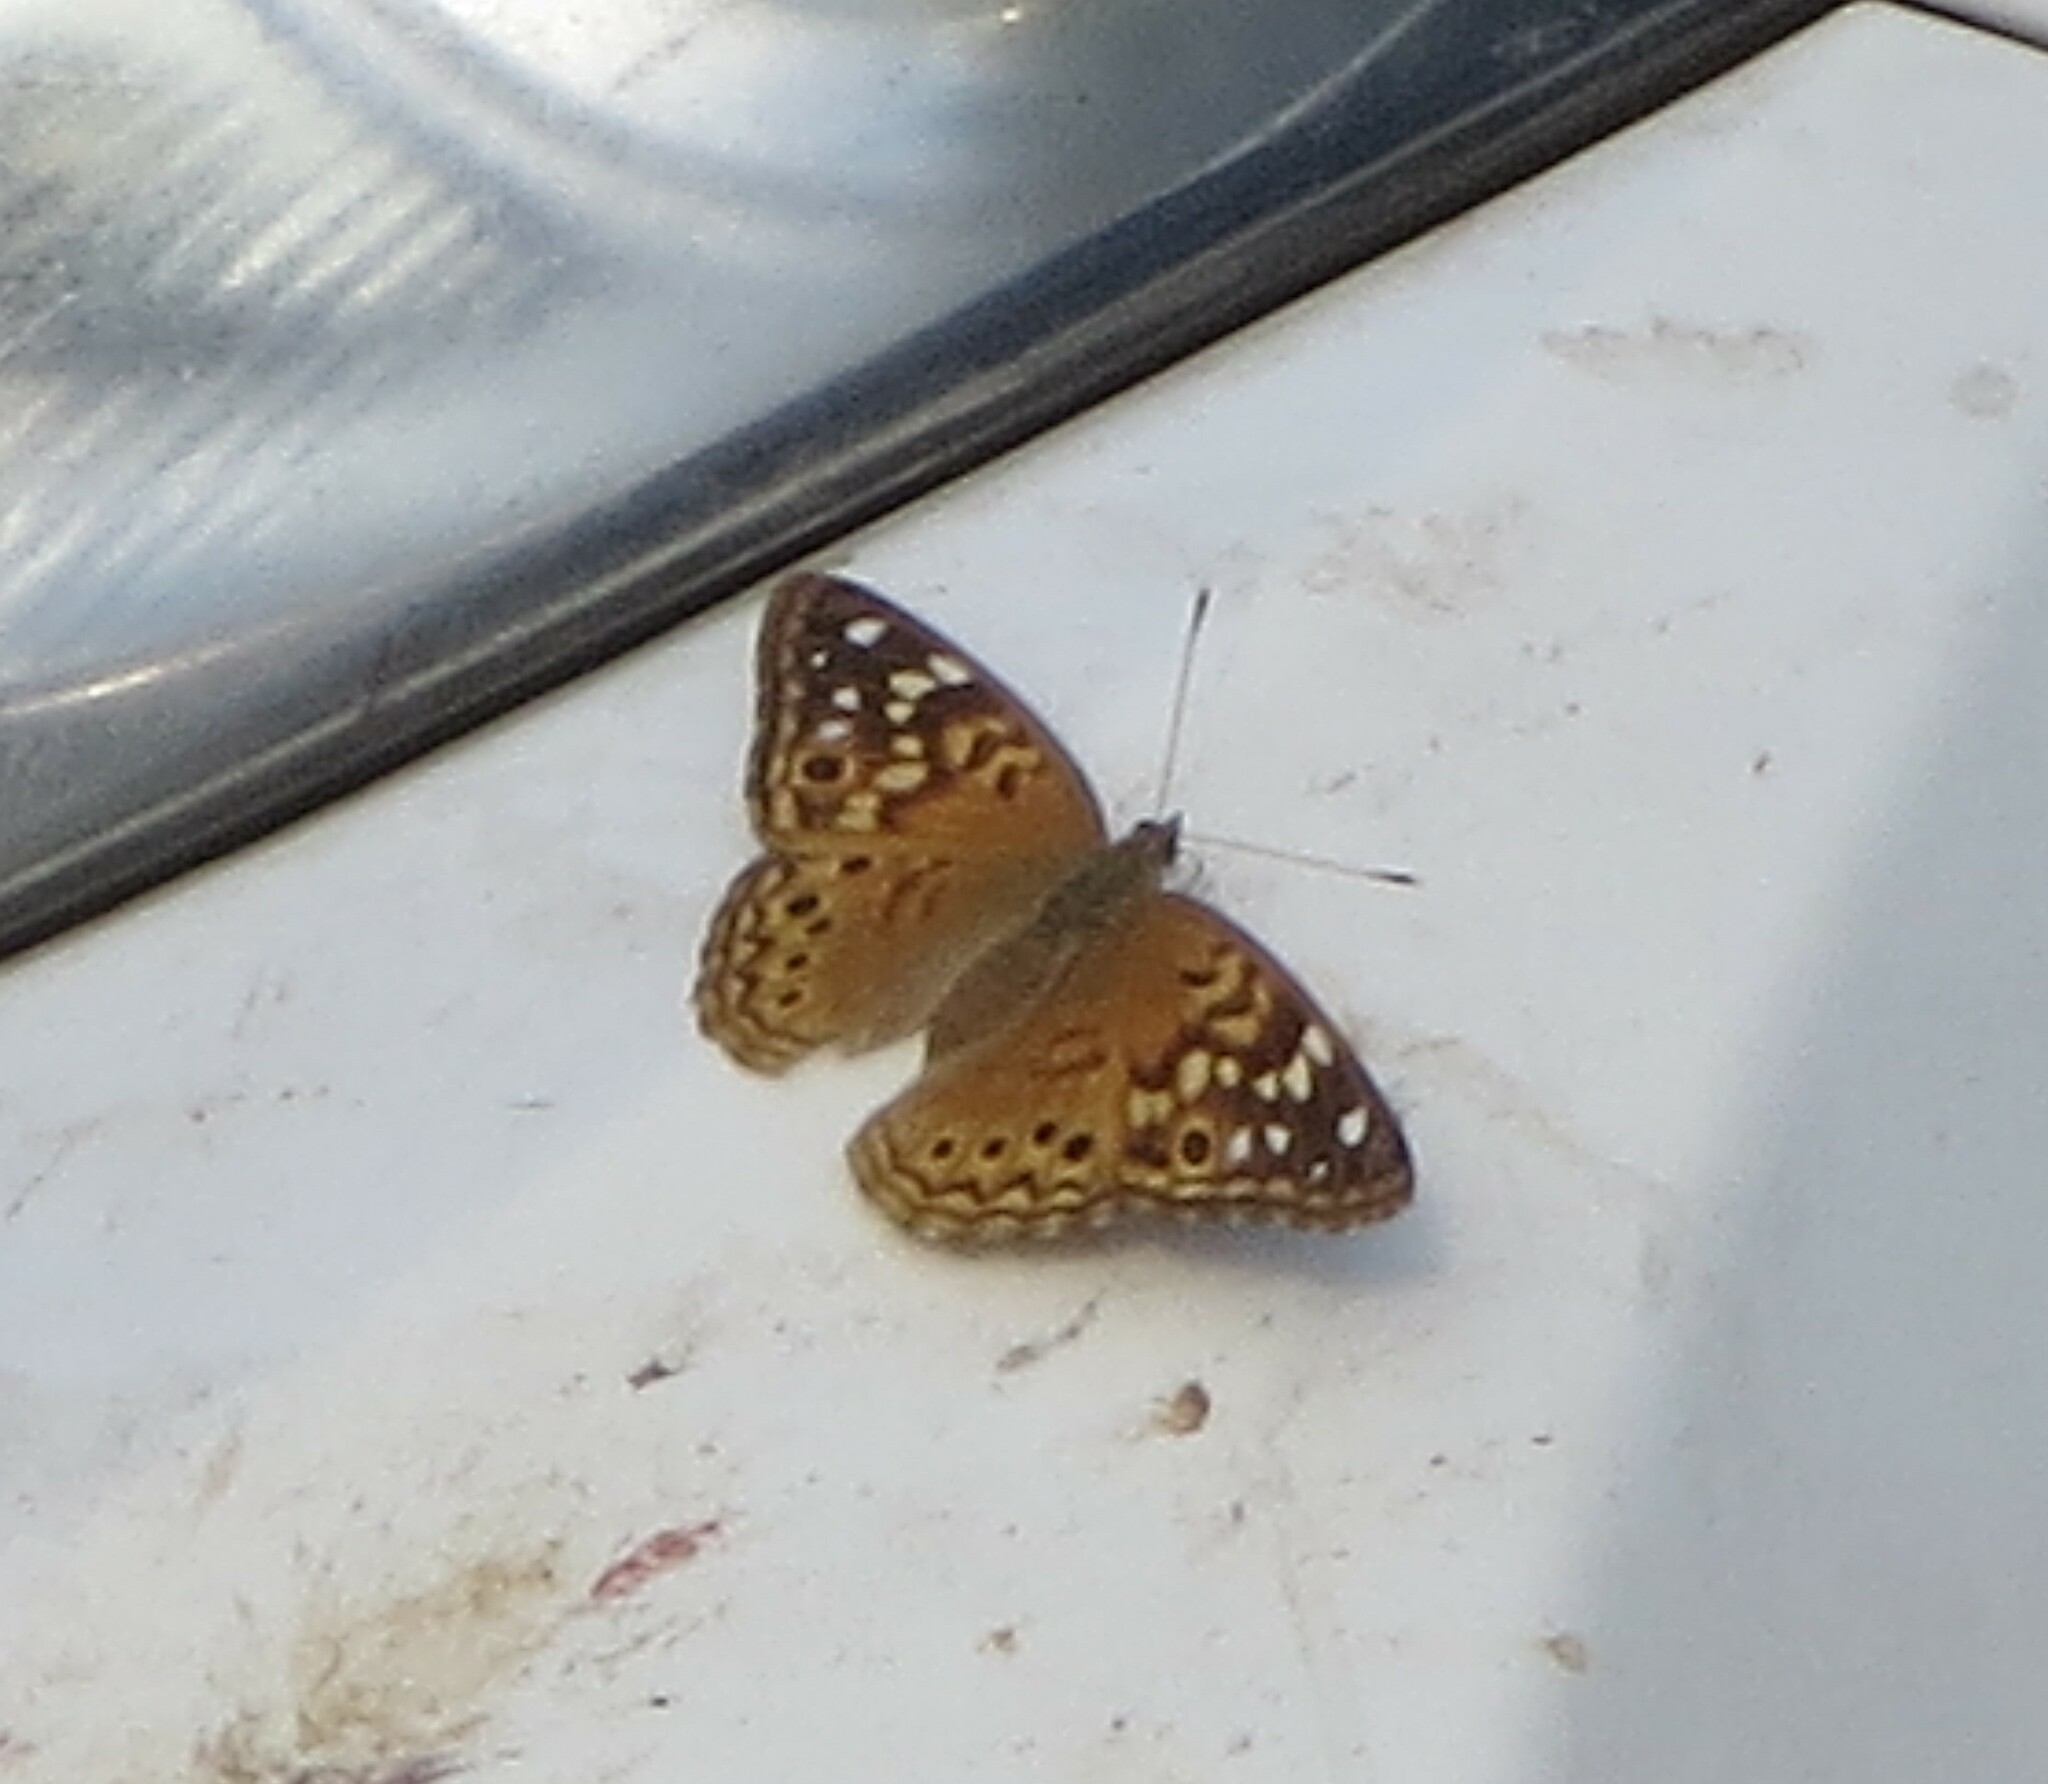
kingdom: Animalia
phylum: Arthropoda
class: Insecta
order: Lepidoptera
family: Nymphalidae
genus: Asterocampa
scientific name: Asterocampa celtis
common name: Hackberry emperor
